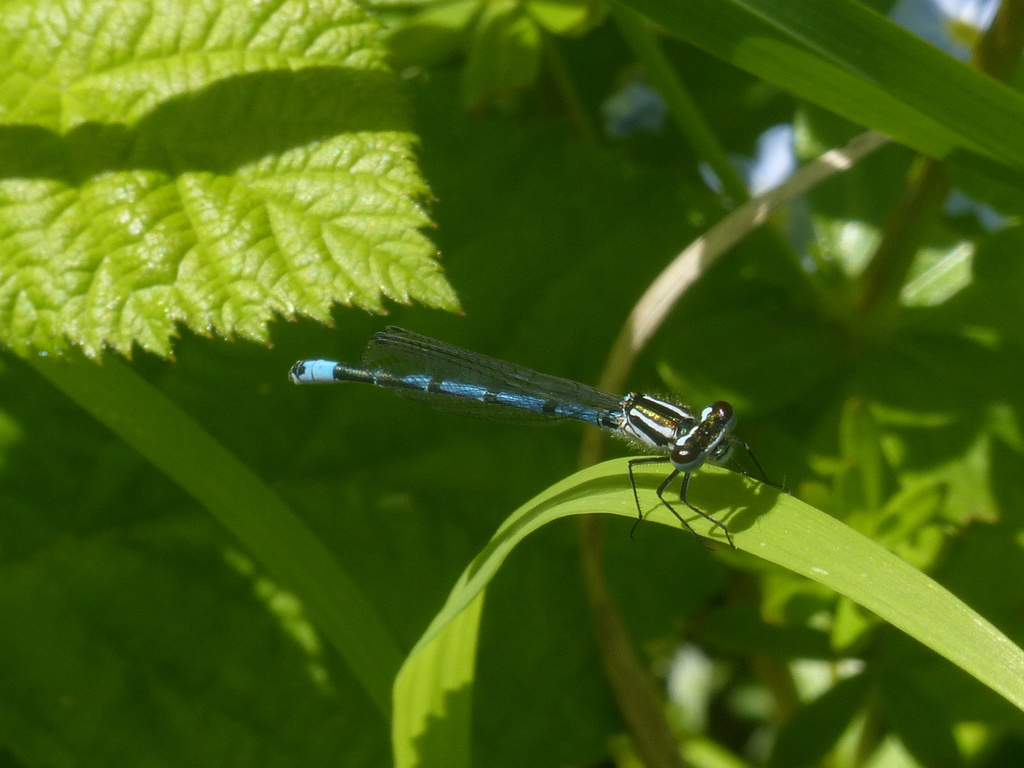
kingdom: Animalia
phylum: Arthropoda
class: Insecta
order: Odonata
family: Coenagrionidae
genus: Coenagrion
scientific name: Coenagrion puella
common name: Azure damselfly
